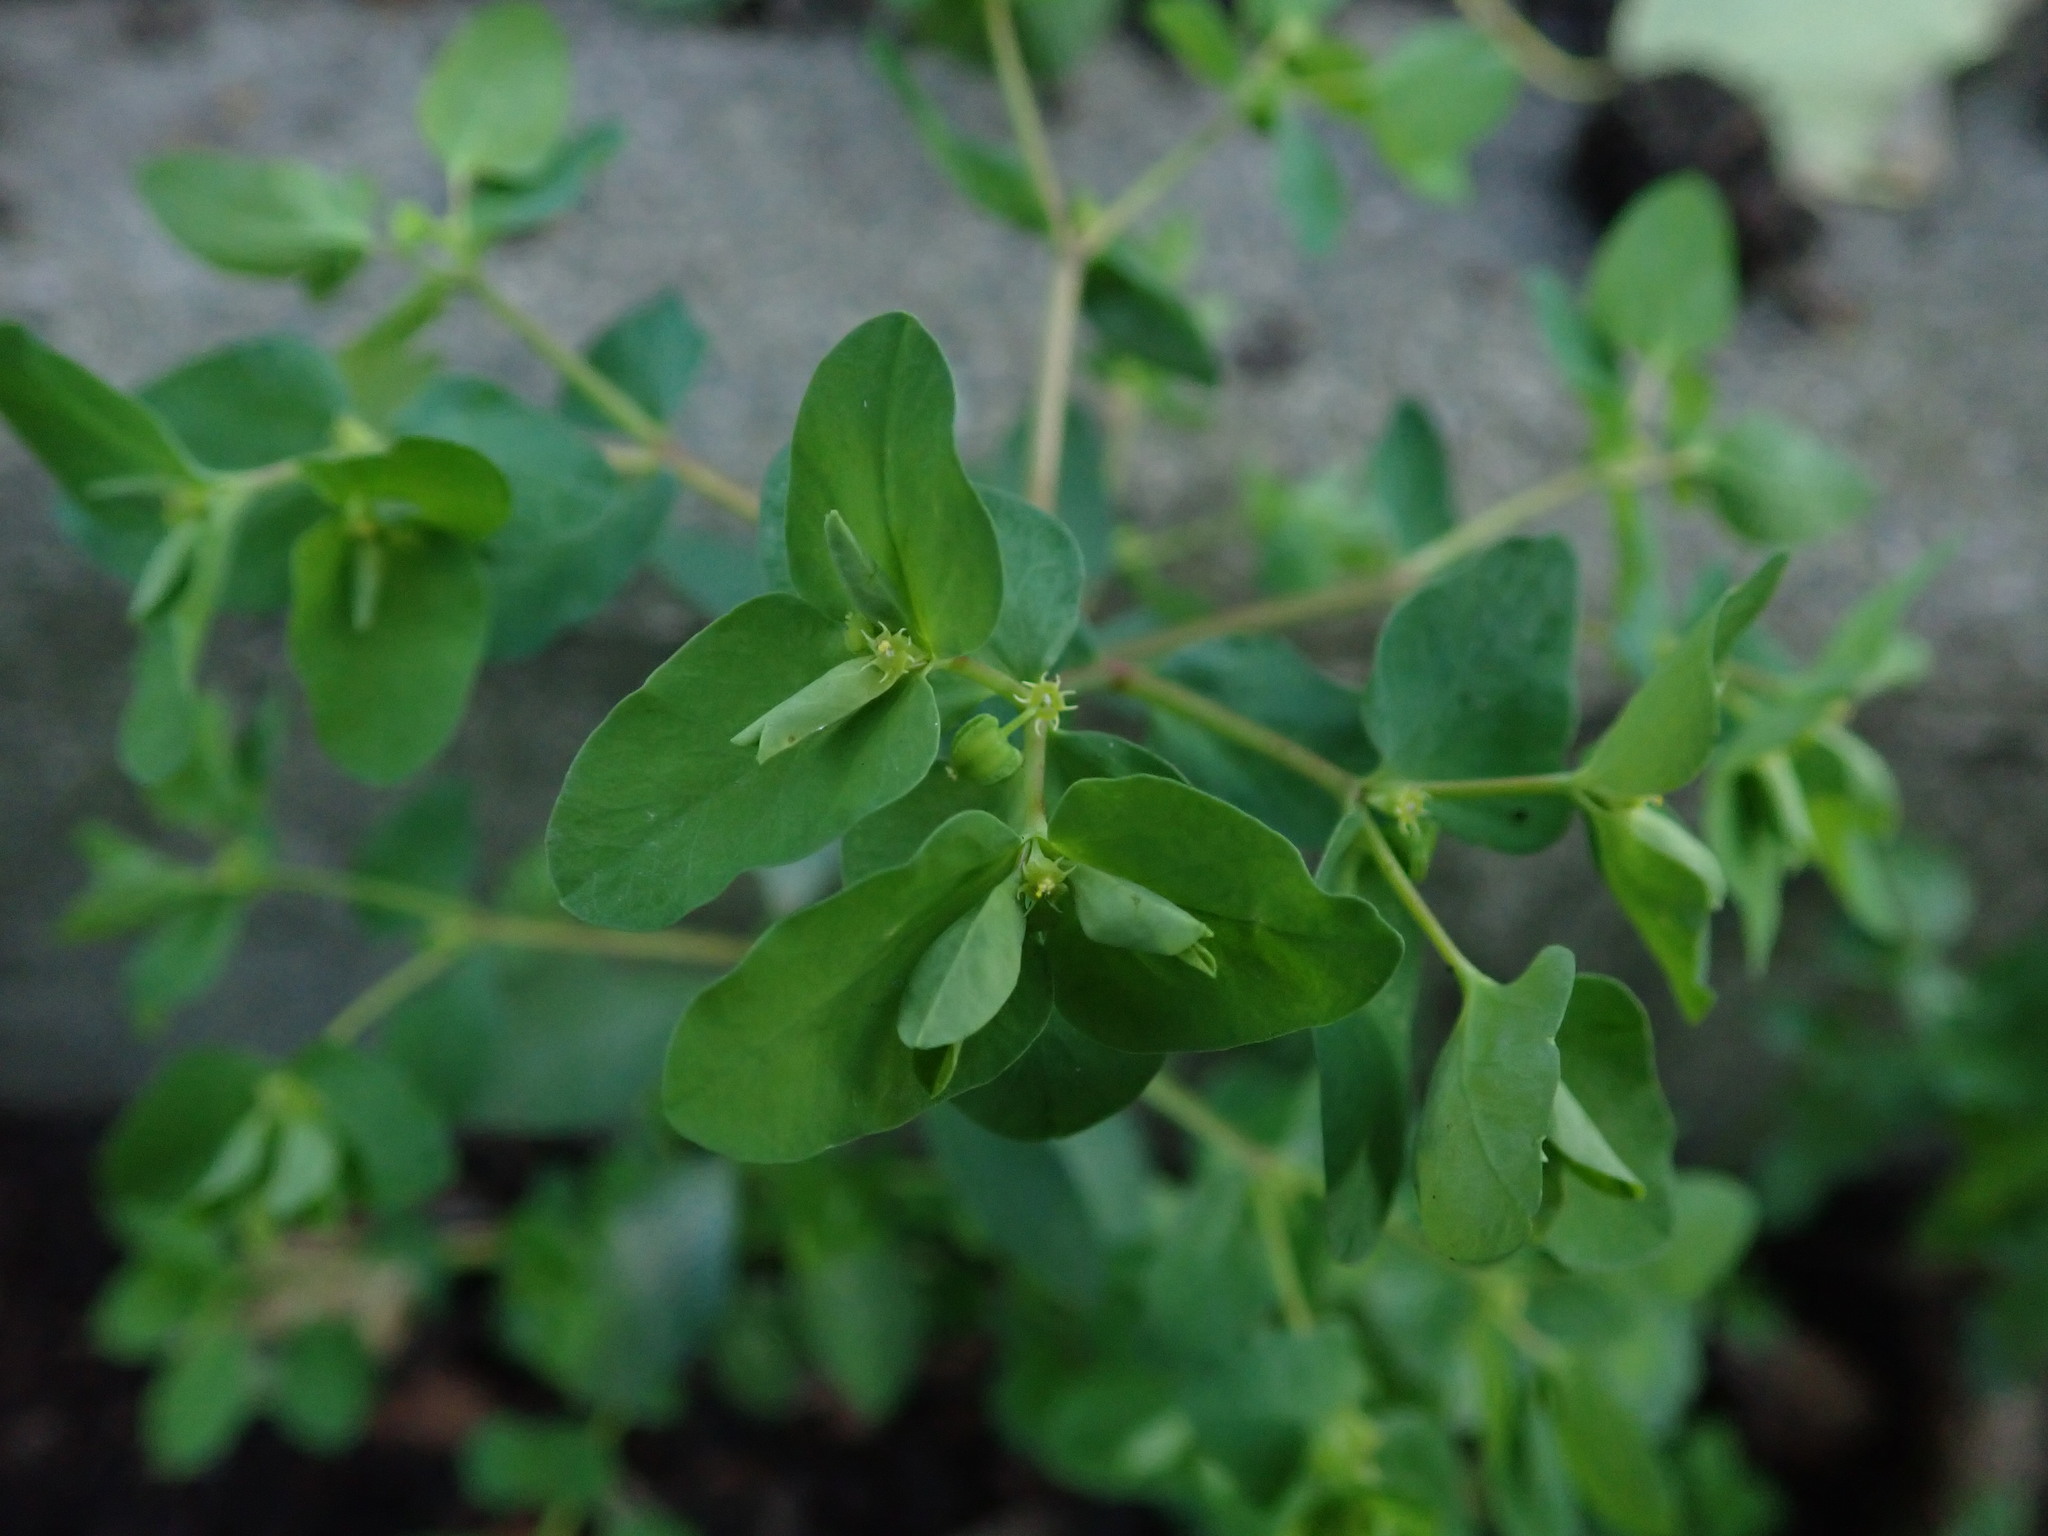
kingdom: Plantae
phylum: Tracheophyta
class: Magnoliopsida
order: Malpighiales
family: Euphorbiaceae
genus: Euphorbia
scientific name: Euphorbia peplus
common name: Petty spurge
